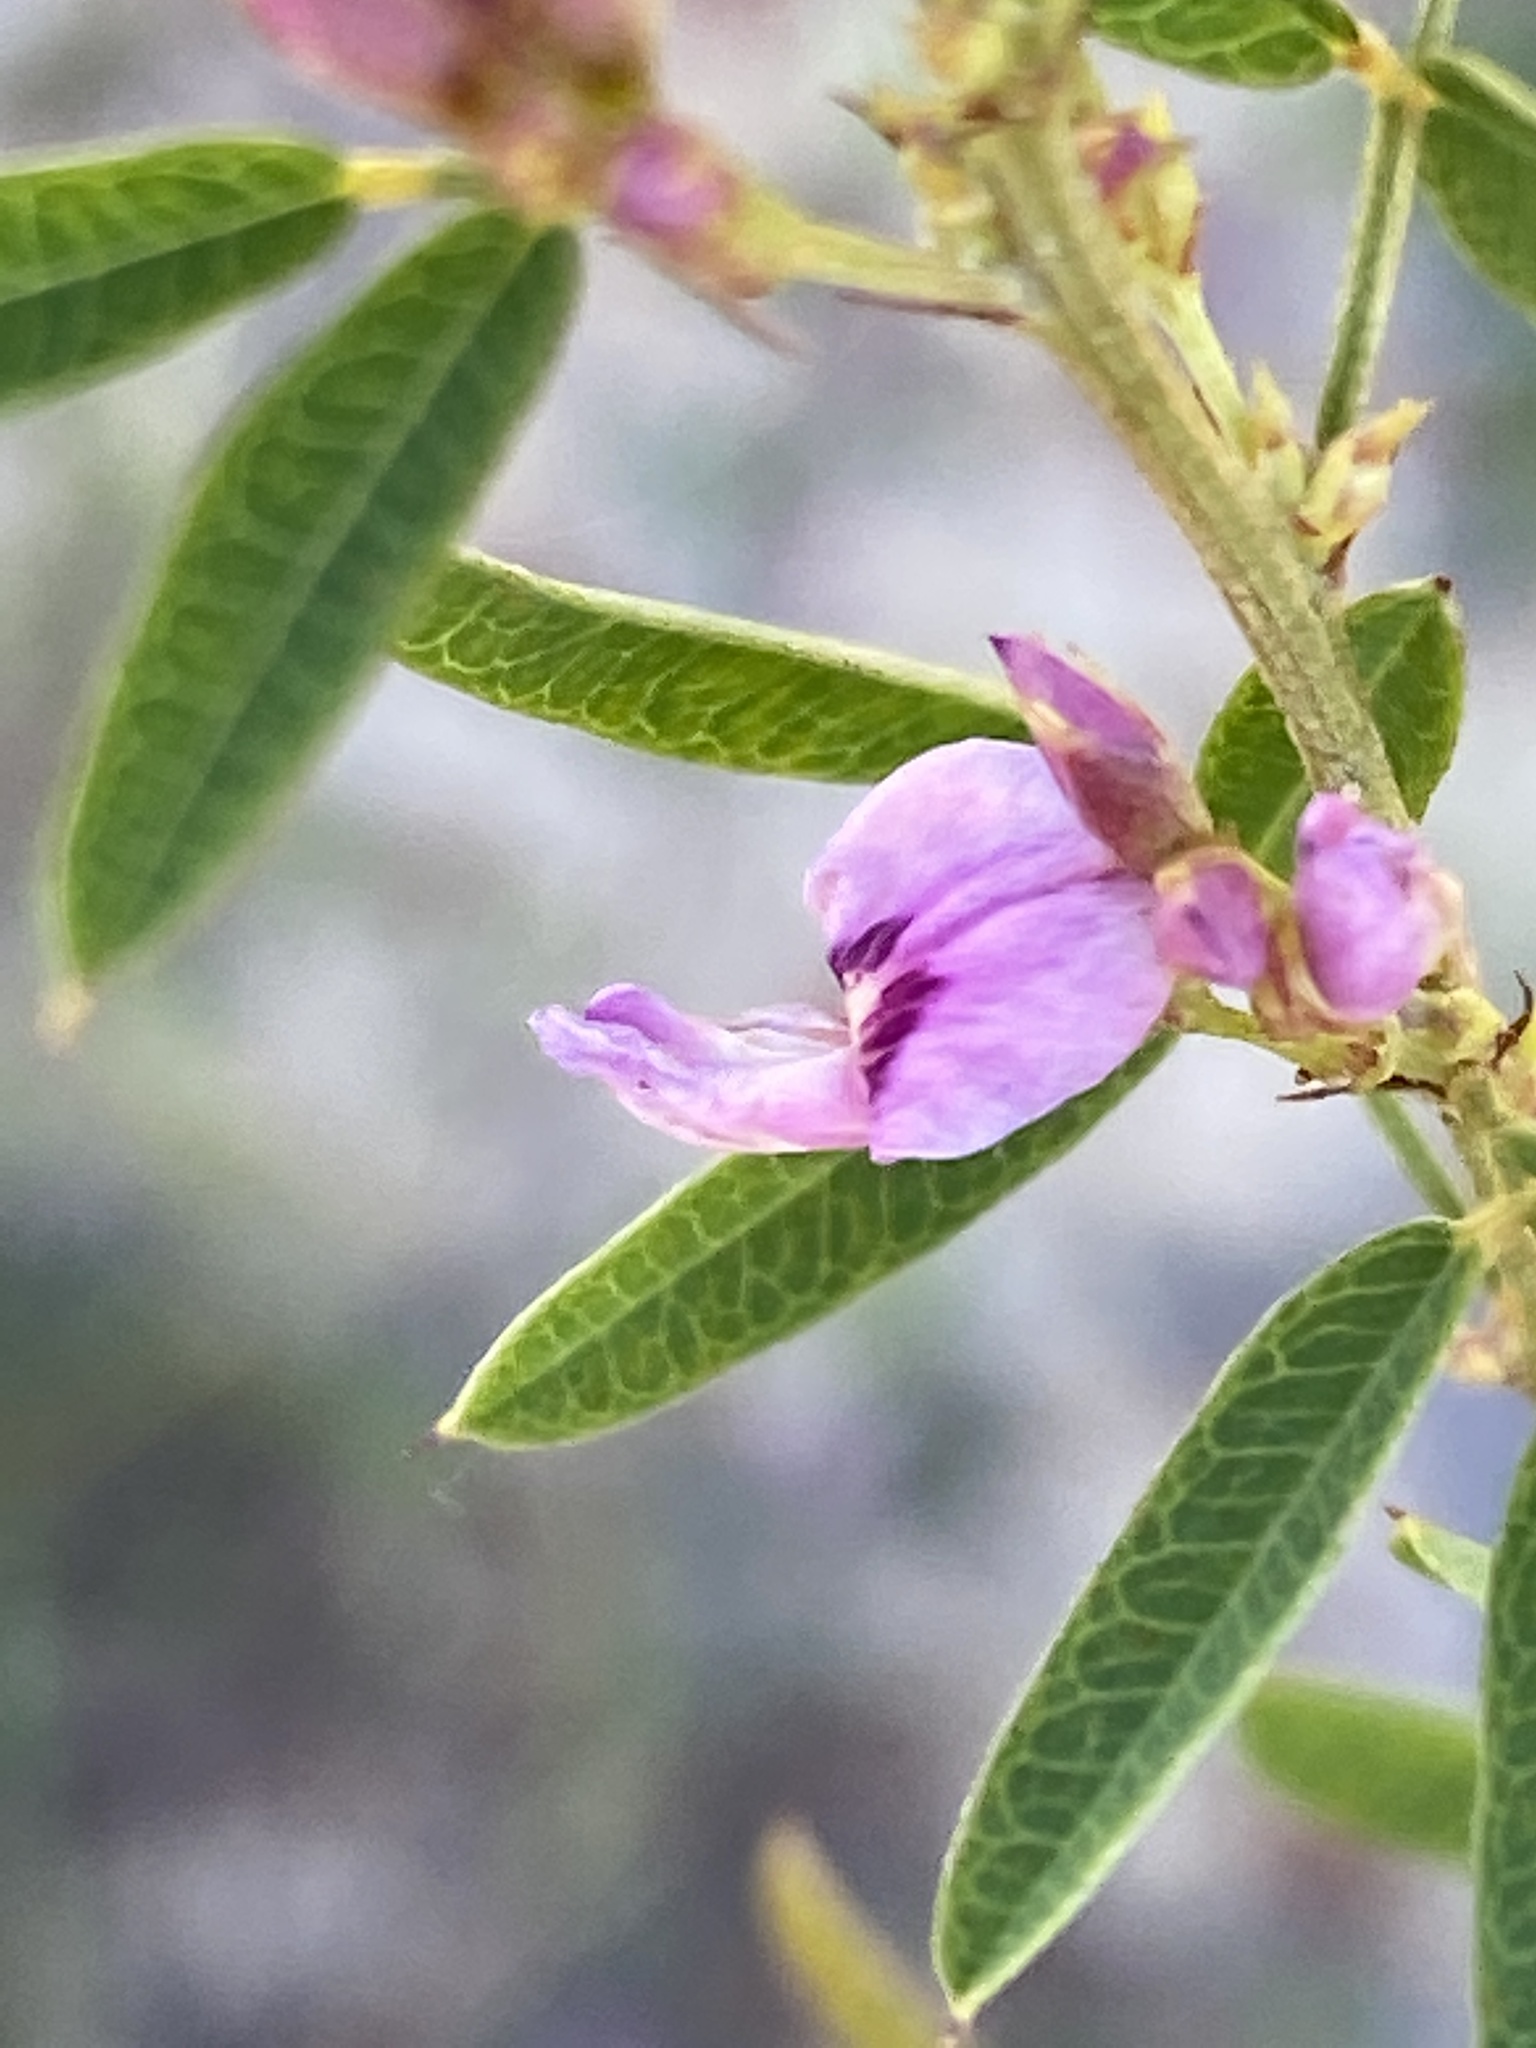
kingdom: Plantae
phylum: Tracheophyta
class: Magnoliopsida
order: Fabales
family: Fabaceae
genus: Lespedeza
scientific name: Lespedeza virginica
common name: Slender bush-clover
